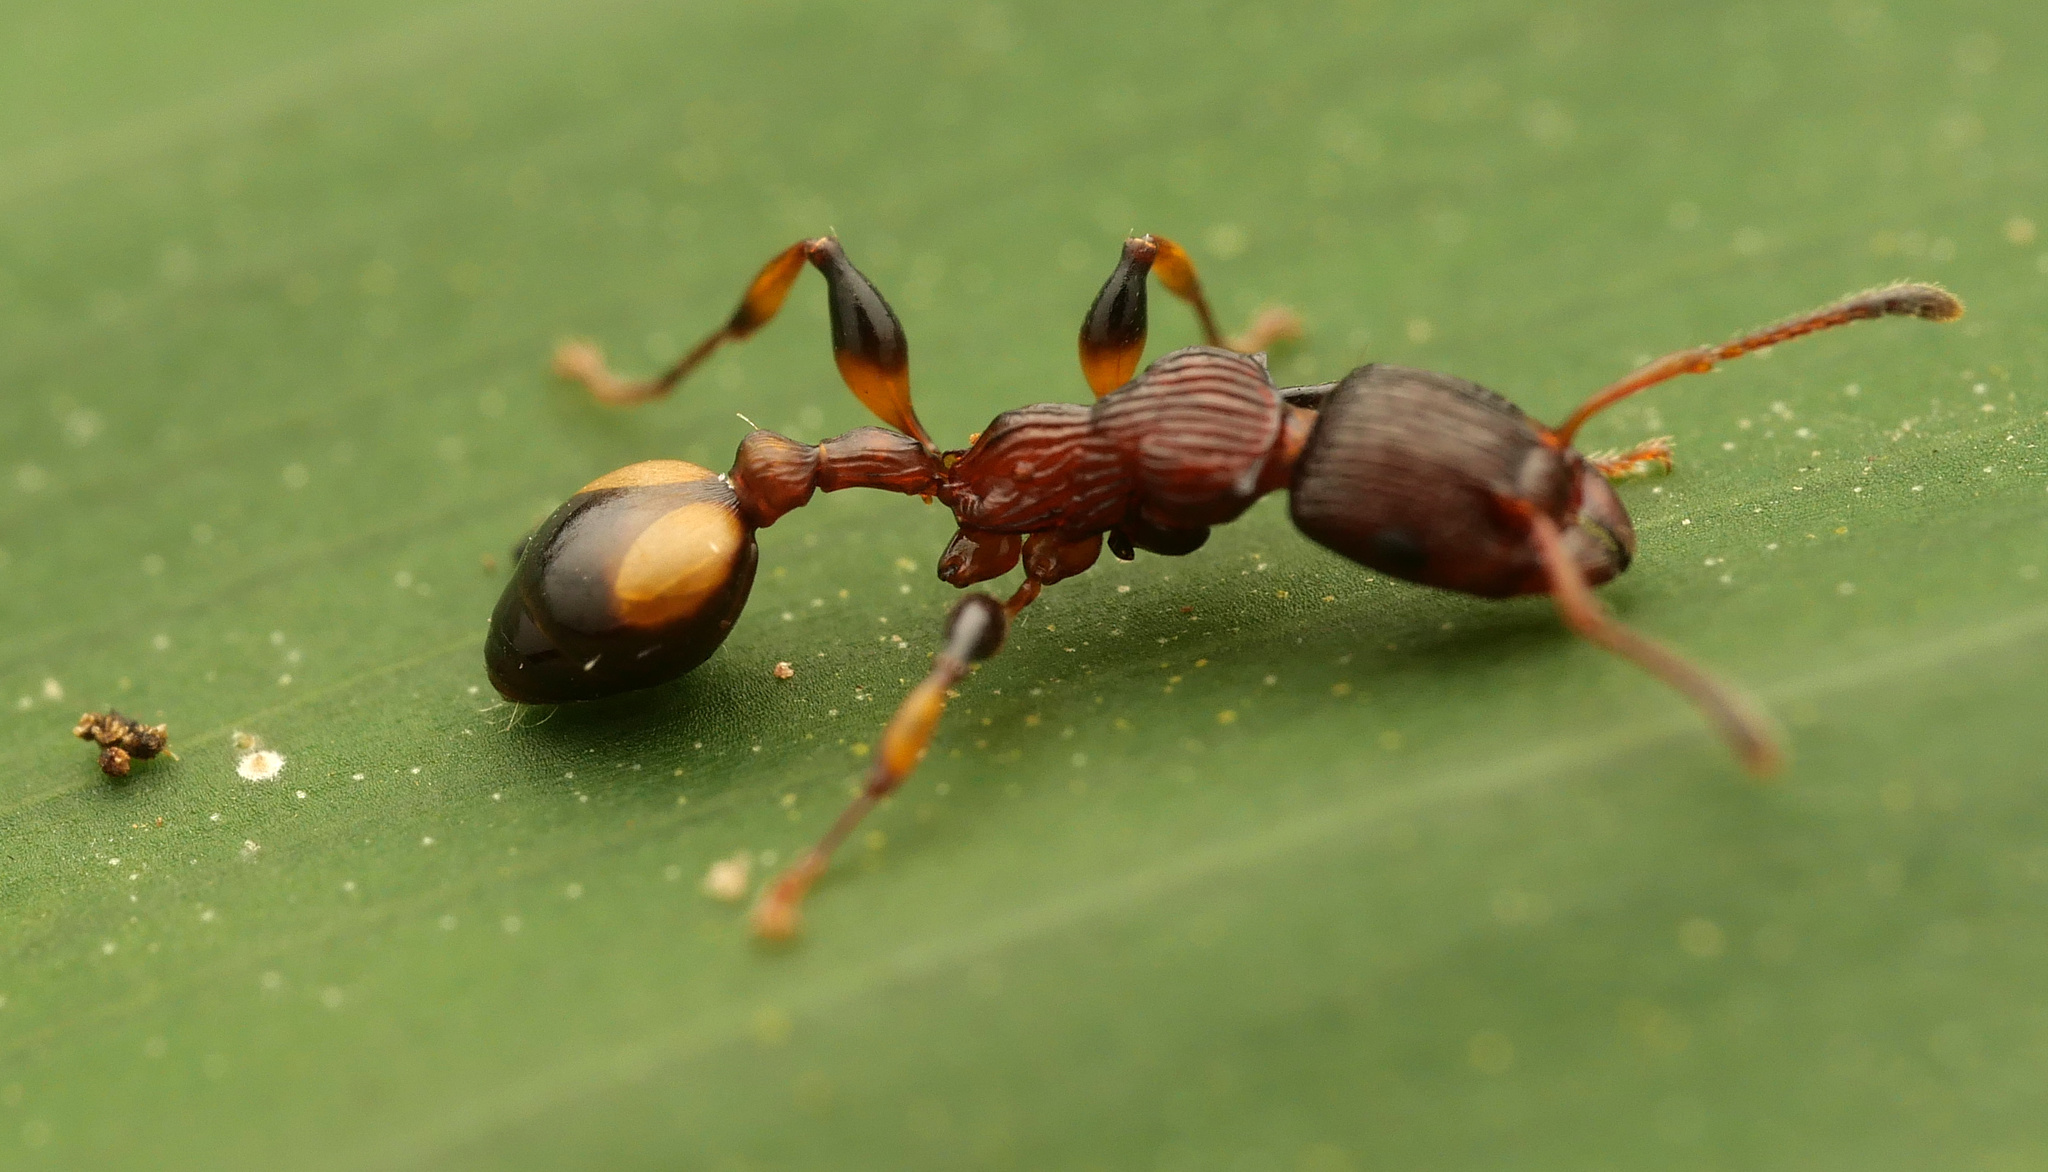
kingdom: Animalia
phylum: Arthropoda
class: Insecta
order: Hymenoptera
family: Formicidae
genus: Podomyrma
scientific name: Podomyrma basalis
